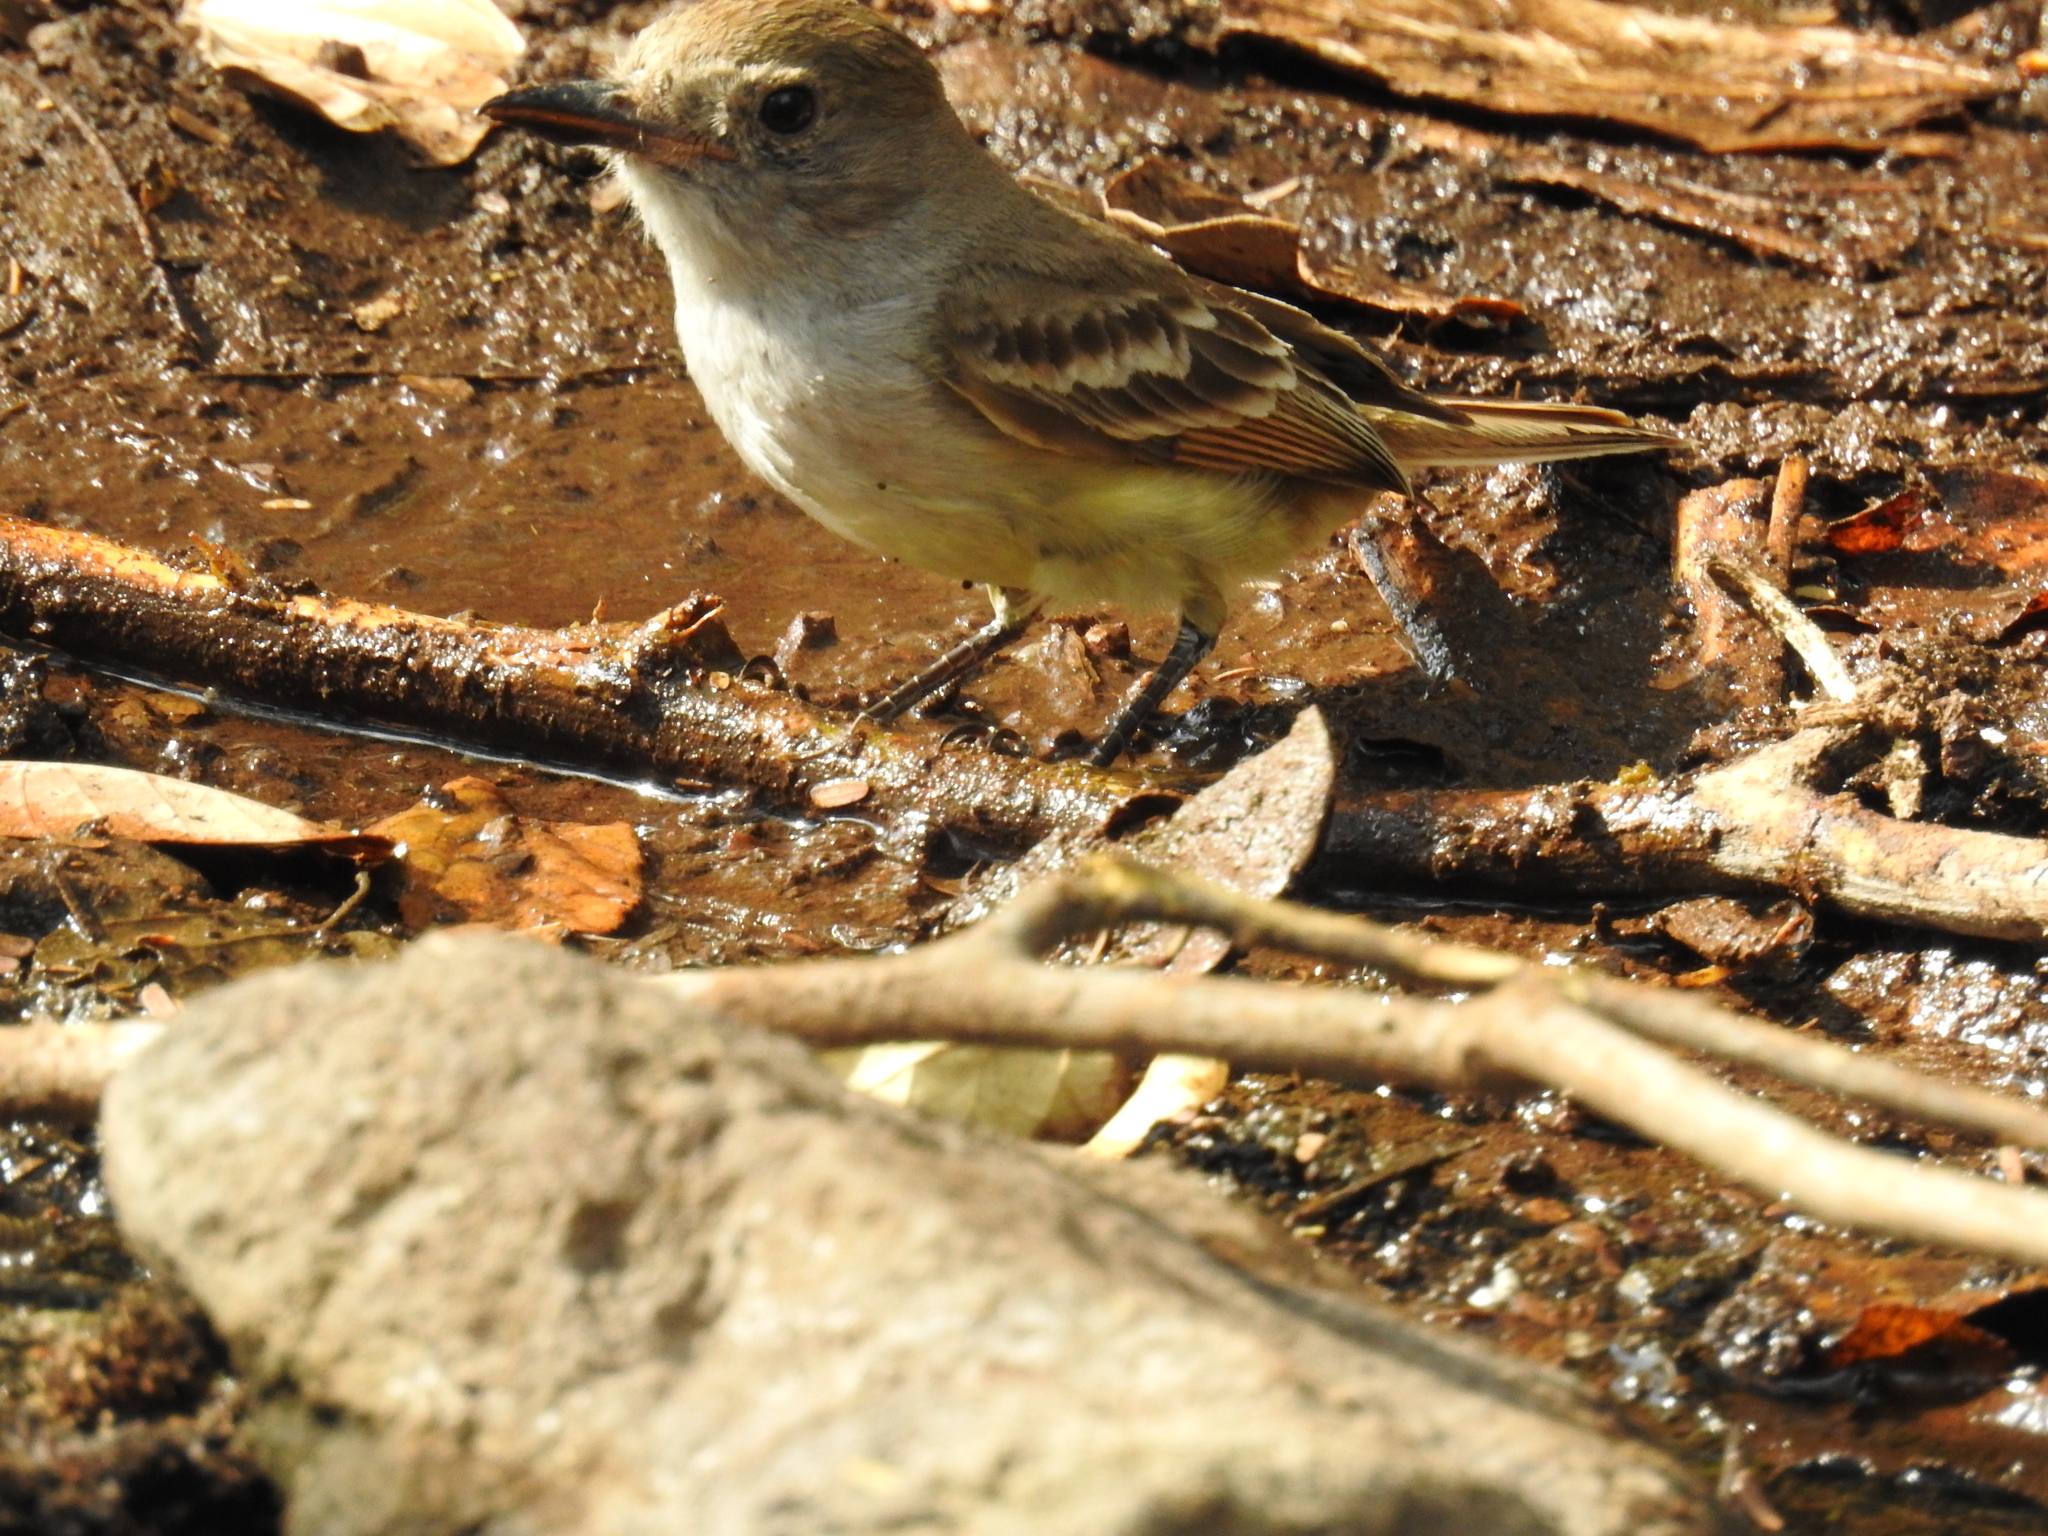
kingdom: Animalia
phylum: Chordata
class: Aves
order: Passeriformes
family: Tyrannidae
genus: Myiarchus
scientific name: Myiarchus nuttingi
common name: Nutting's flycatcher
